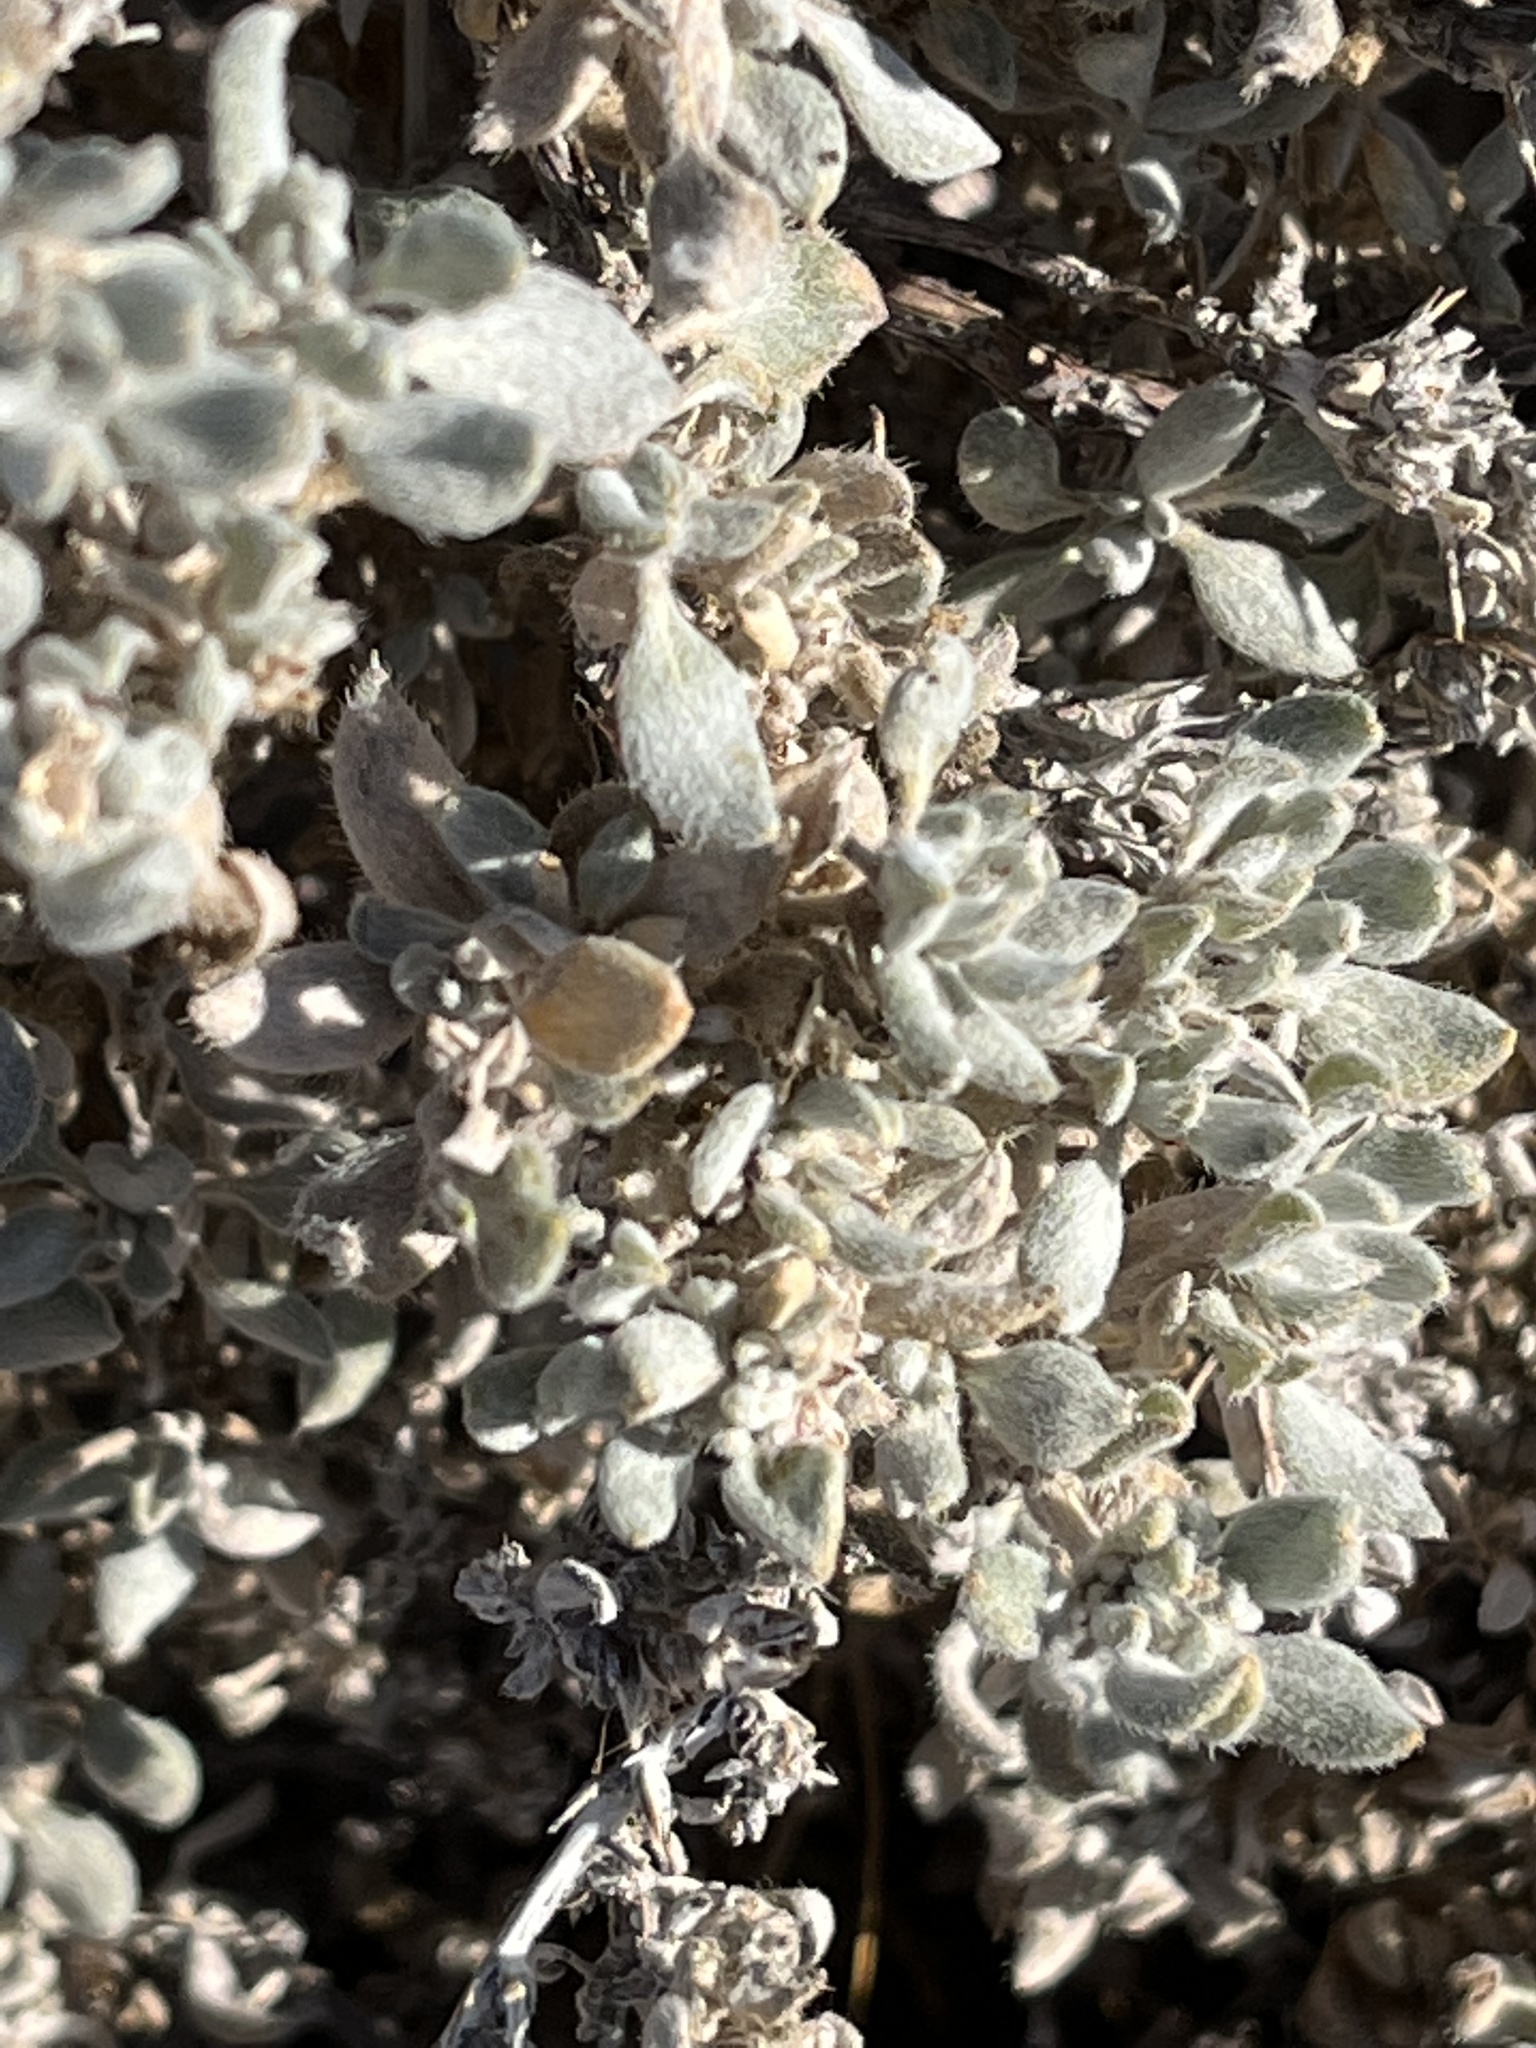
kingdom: Plantae
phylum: Tracheophyta
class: Magnoliopsida
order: Boraginales
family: Ehretiaceae
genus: Tiquilia
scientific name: Tiquilia canescens
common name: Hairy tiquilia
